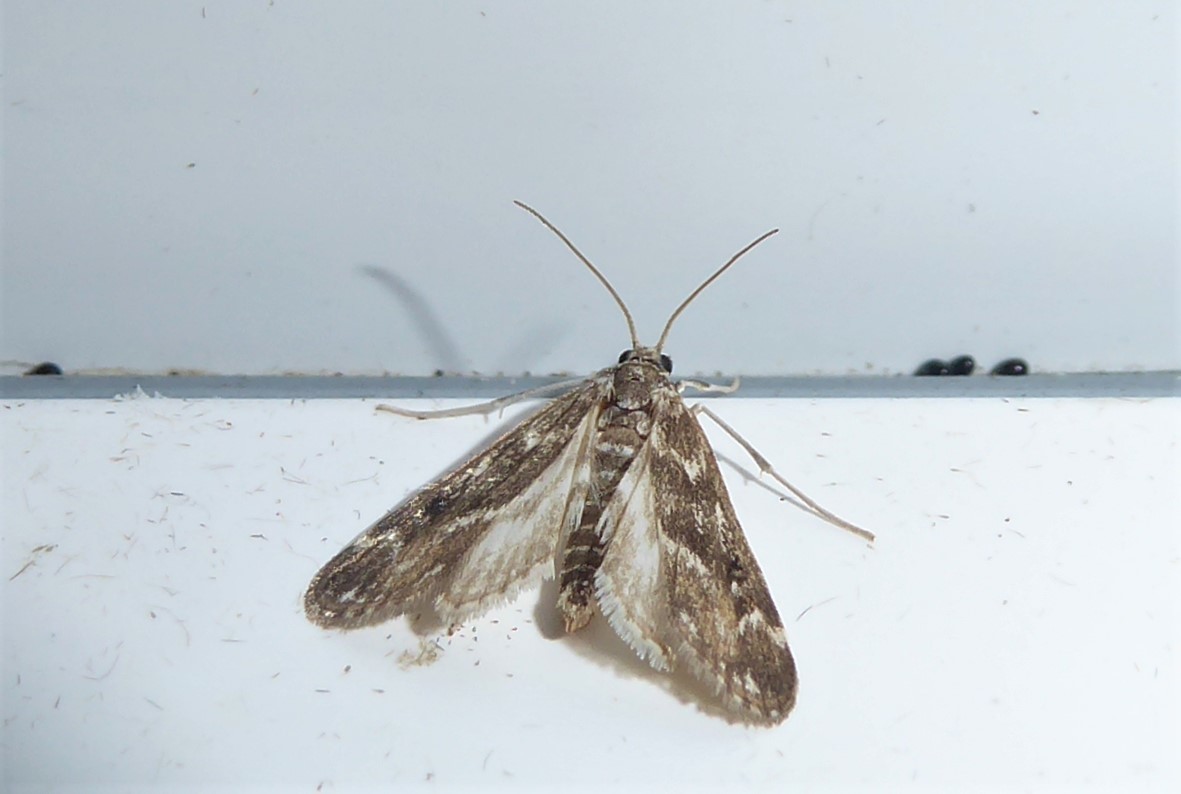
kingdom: Animalia
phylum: Arthropoda
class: Insecta
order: Lepidoptera
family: Crambidae
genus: Hygraula
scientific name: Hygraula nitens
